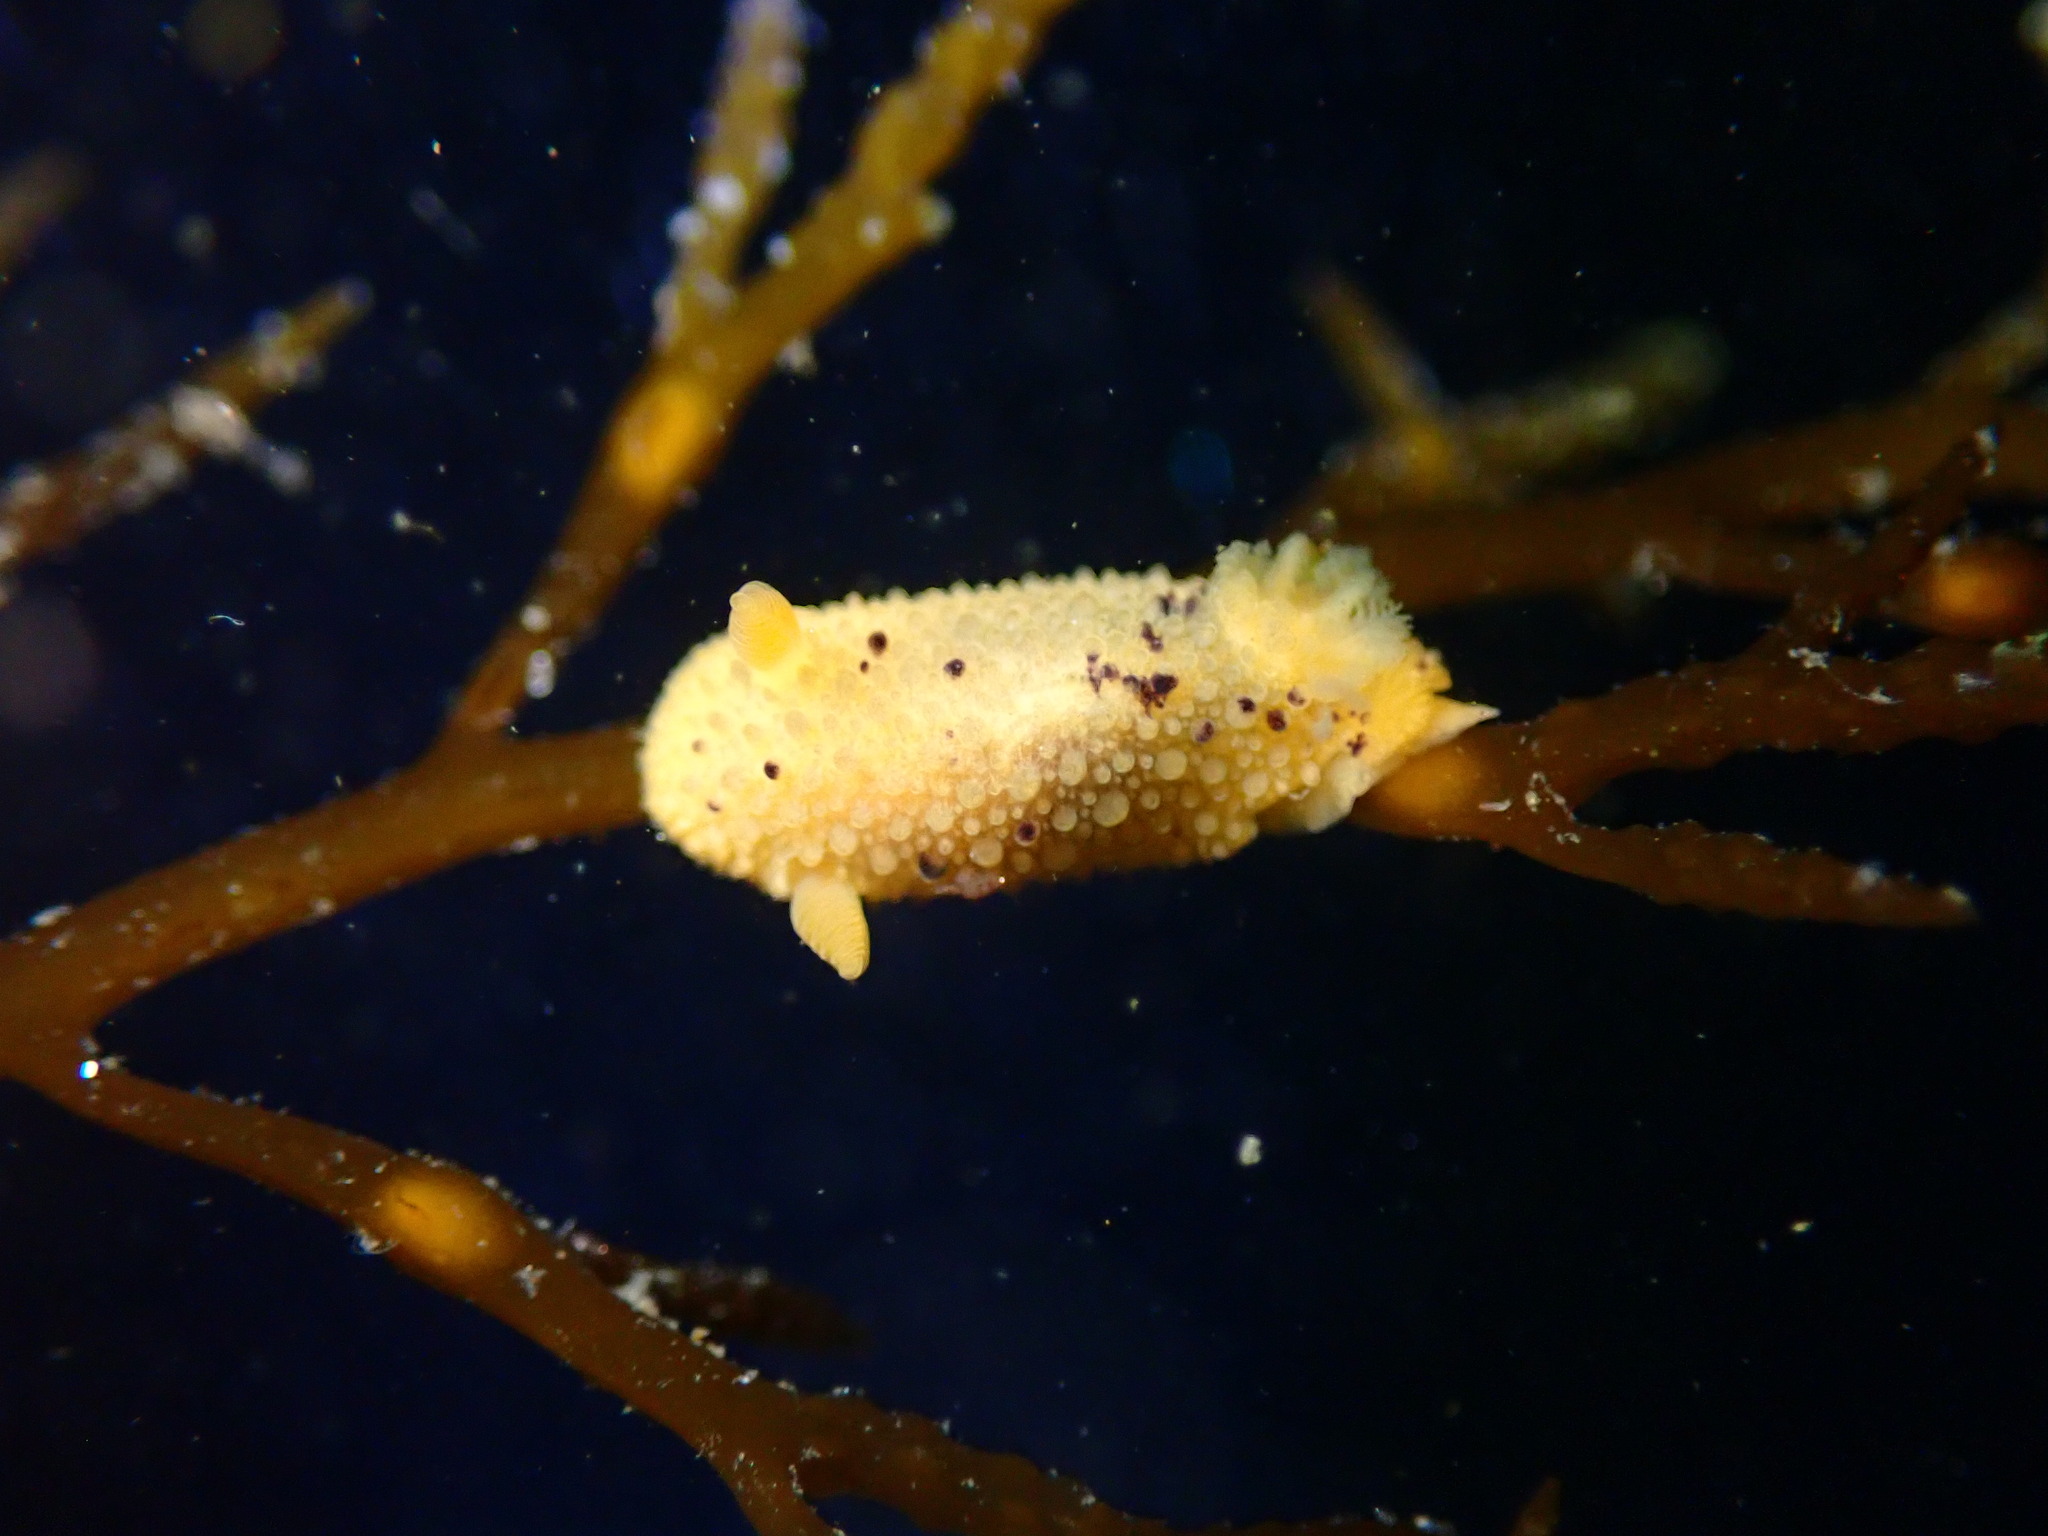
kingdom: Animalia
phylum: Mollusca
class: Gastropoda
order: Nudibranchia
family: Dorididae
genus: Doris
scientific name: Doris montereyensis
